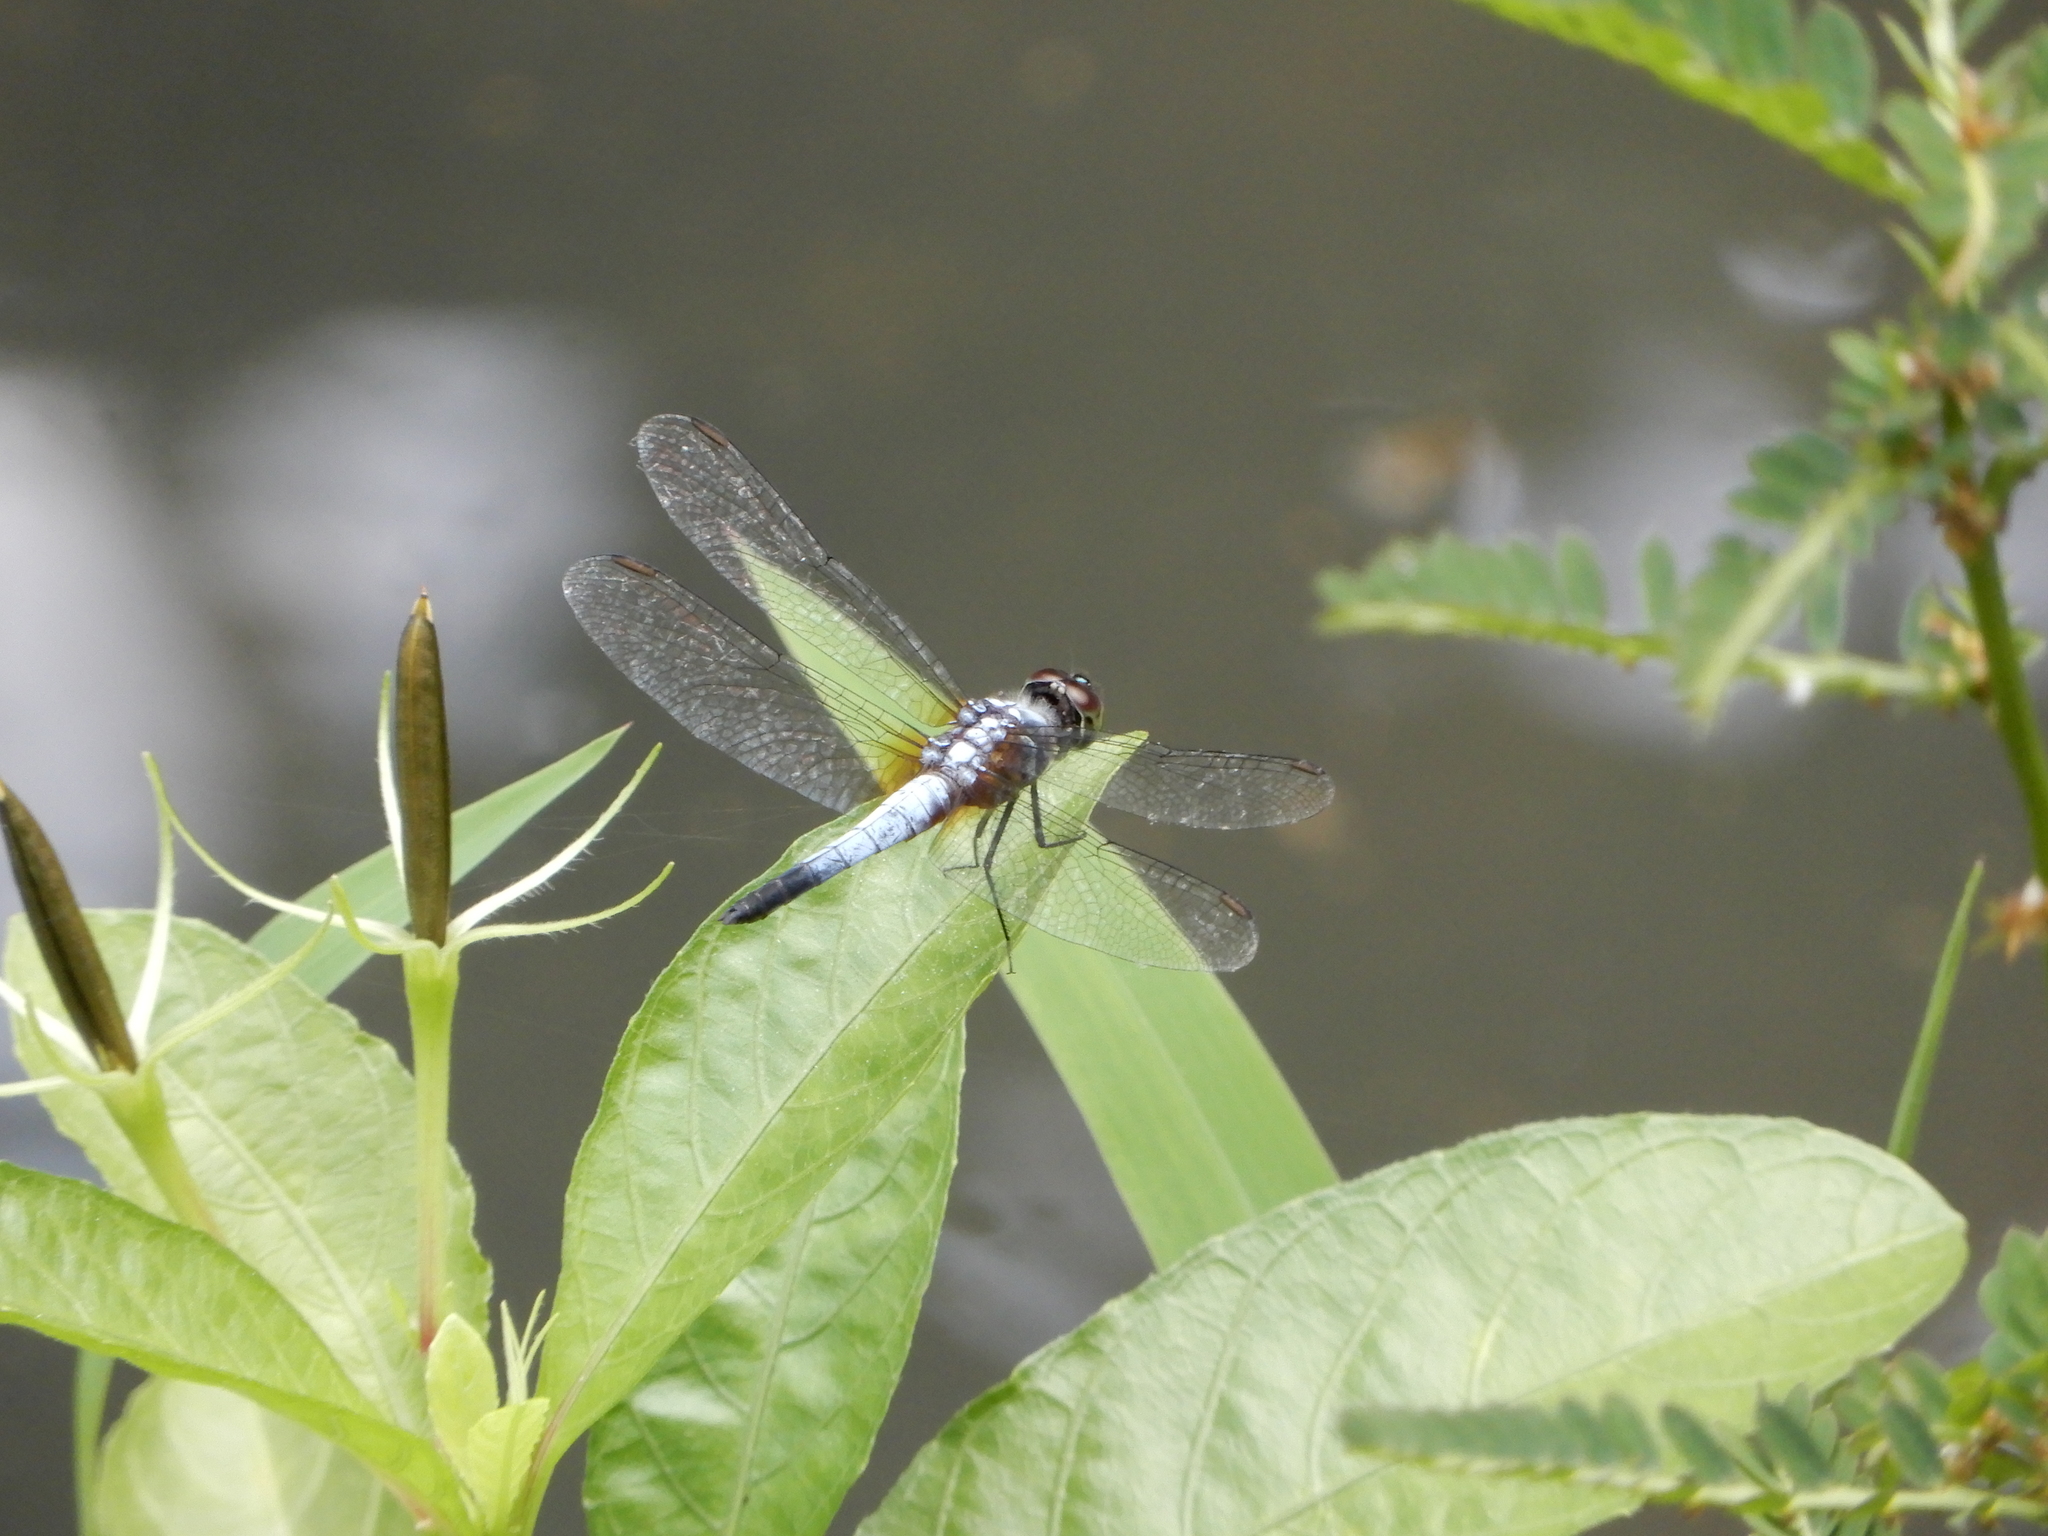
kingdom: Animalia
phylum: Arthropoda
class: Insecta
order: Odonata
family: Libellulidae
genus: Brachydiplax
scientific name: Brachydiplax chalybea
